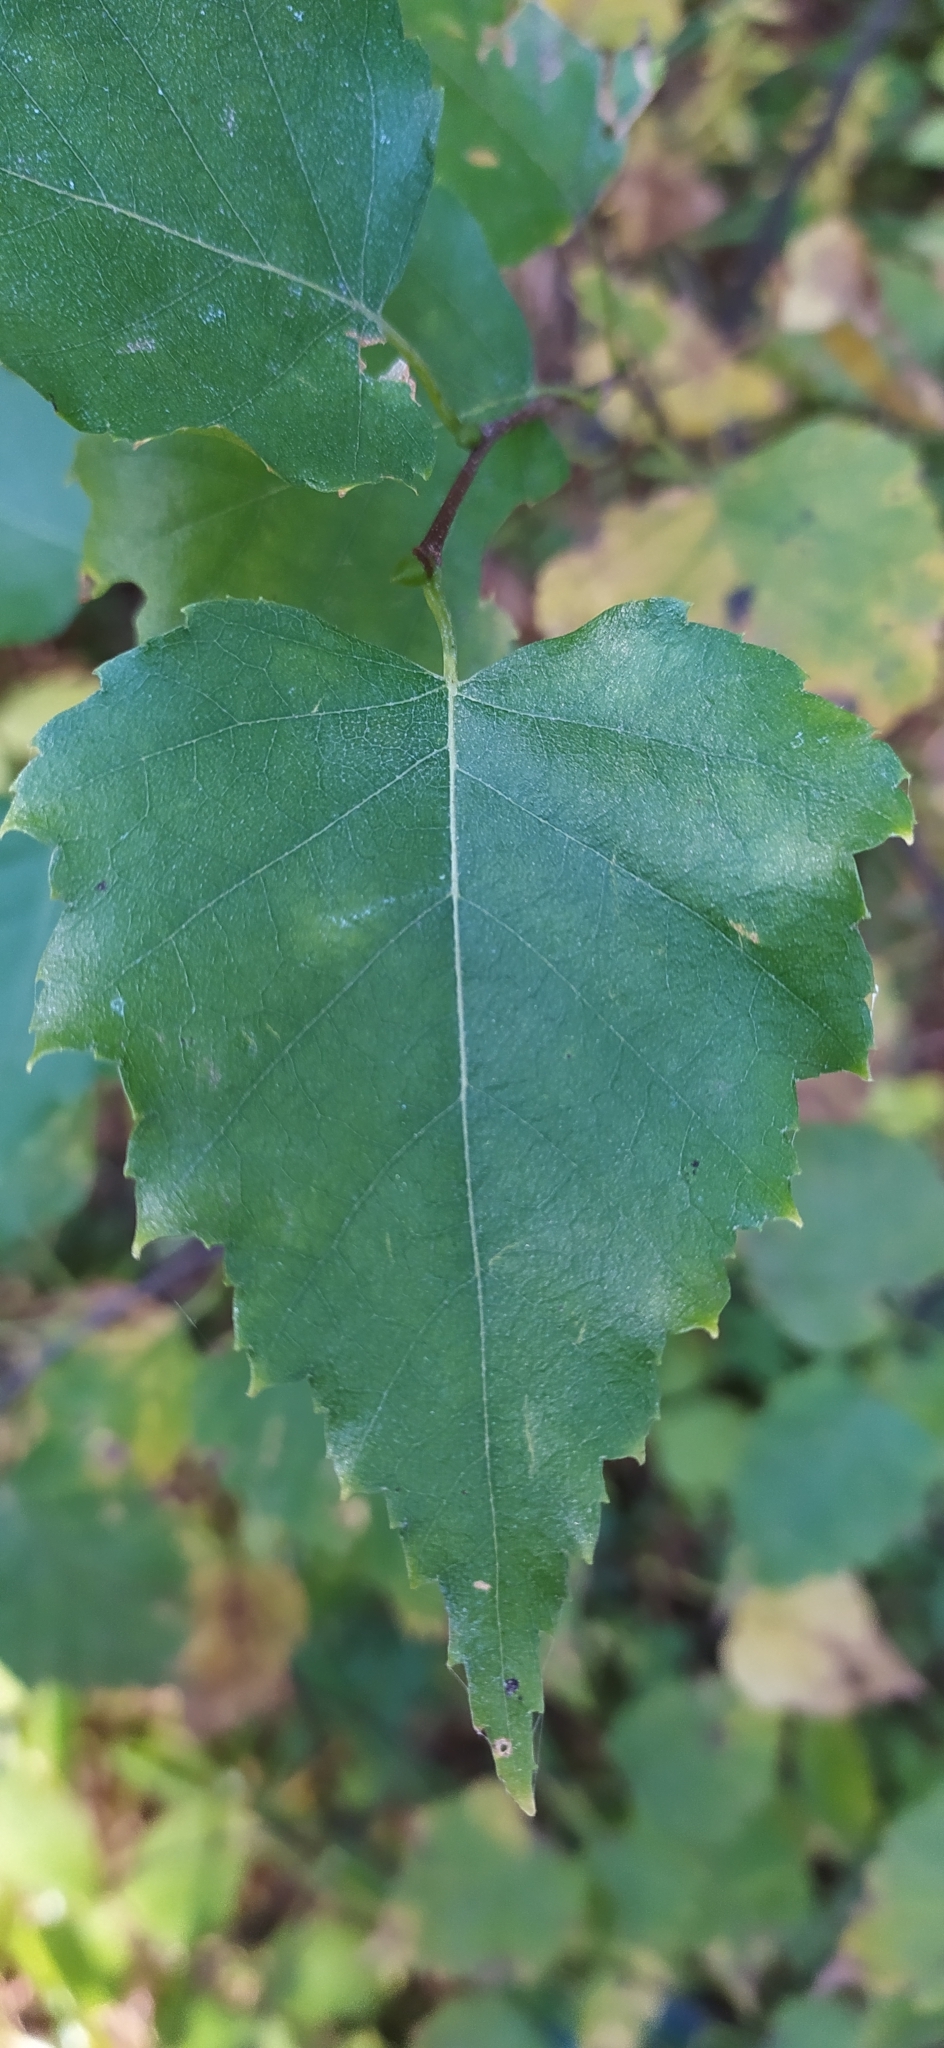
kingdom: Plantae
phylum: Tracheophyta
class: Magnoliopsida
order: Fagales
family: Betulaceae
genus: Betula
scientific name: Betula pendula
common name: Silver birch
